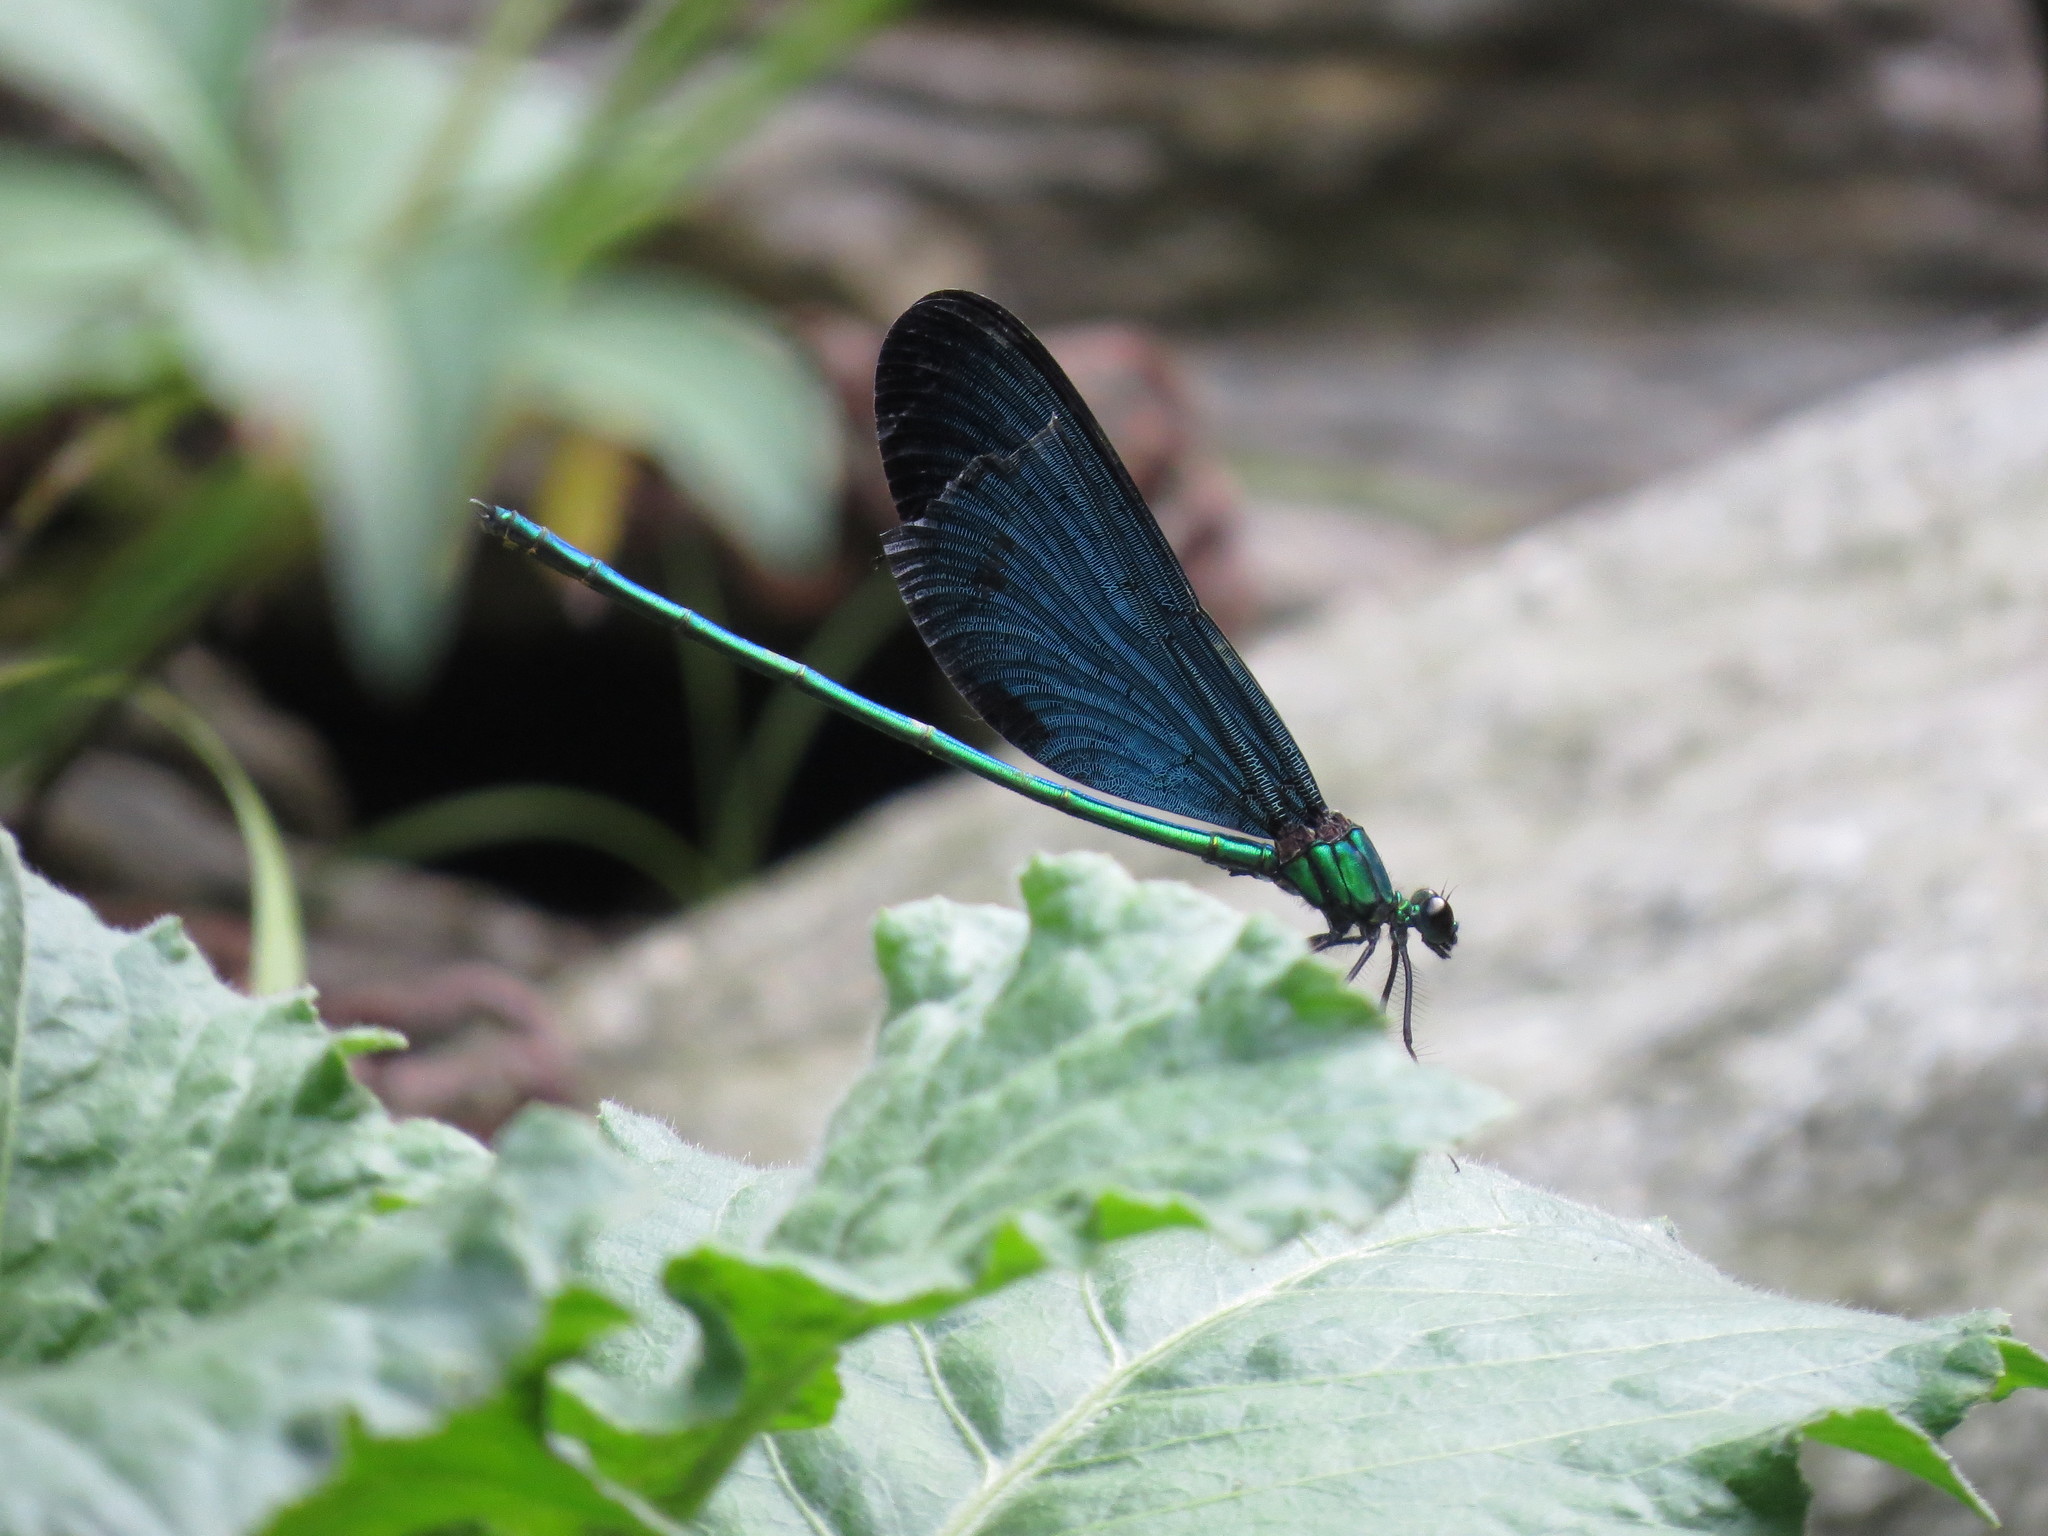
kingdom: Animalia
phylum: Arthropoda
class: Insecta
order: Odonata
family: Calopterygidae
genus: Matrona
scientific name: Matrona cyanoptera
